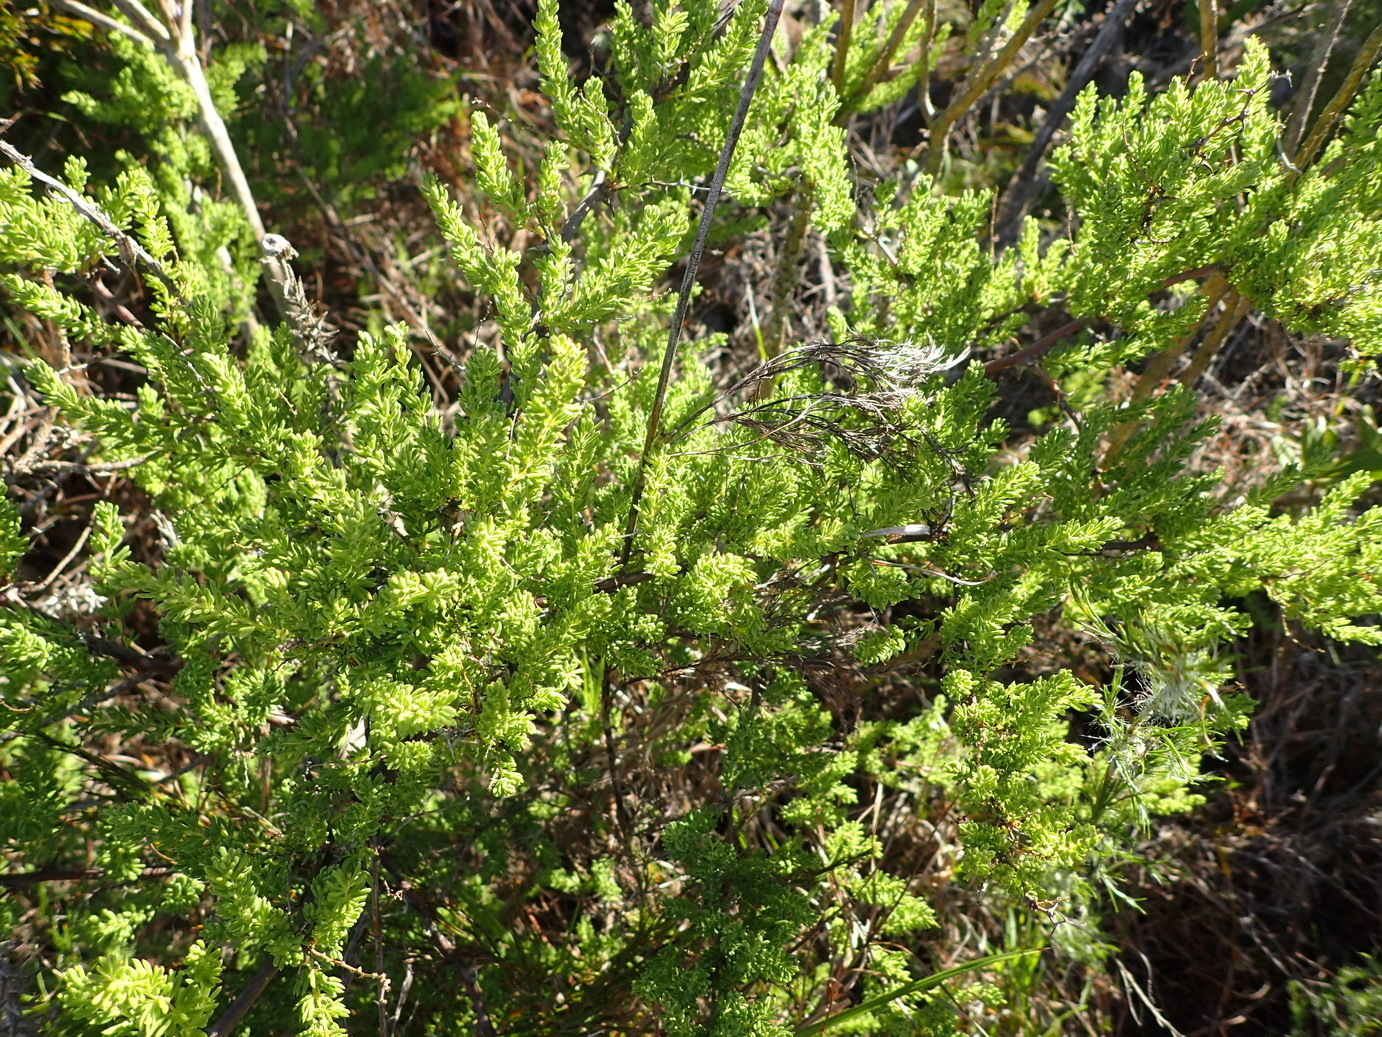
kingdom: Plantae
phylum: Tracheophyta
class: Liliopsida
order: Asparagales
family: Asparagaceae
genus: Asparagus
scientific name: Asparagus rubicundus
